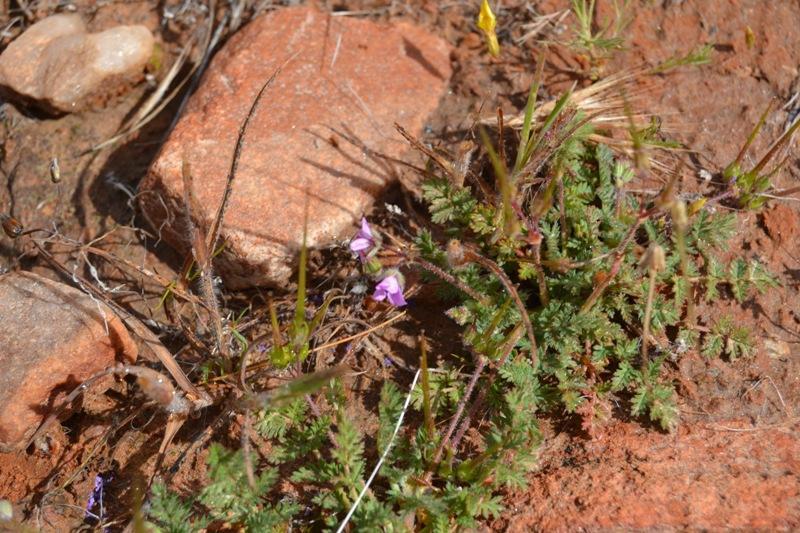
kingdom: Plantae
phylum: Tracheophyta
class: Magnoliopsida
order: Geraniales
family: Geraniaceae
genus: Erodium
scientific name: Erodium cicutarium
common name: Common stork's-bill
